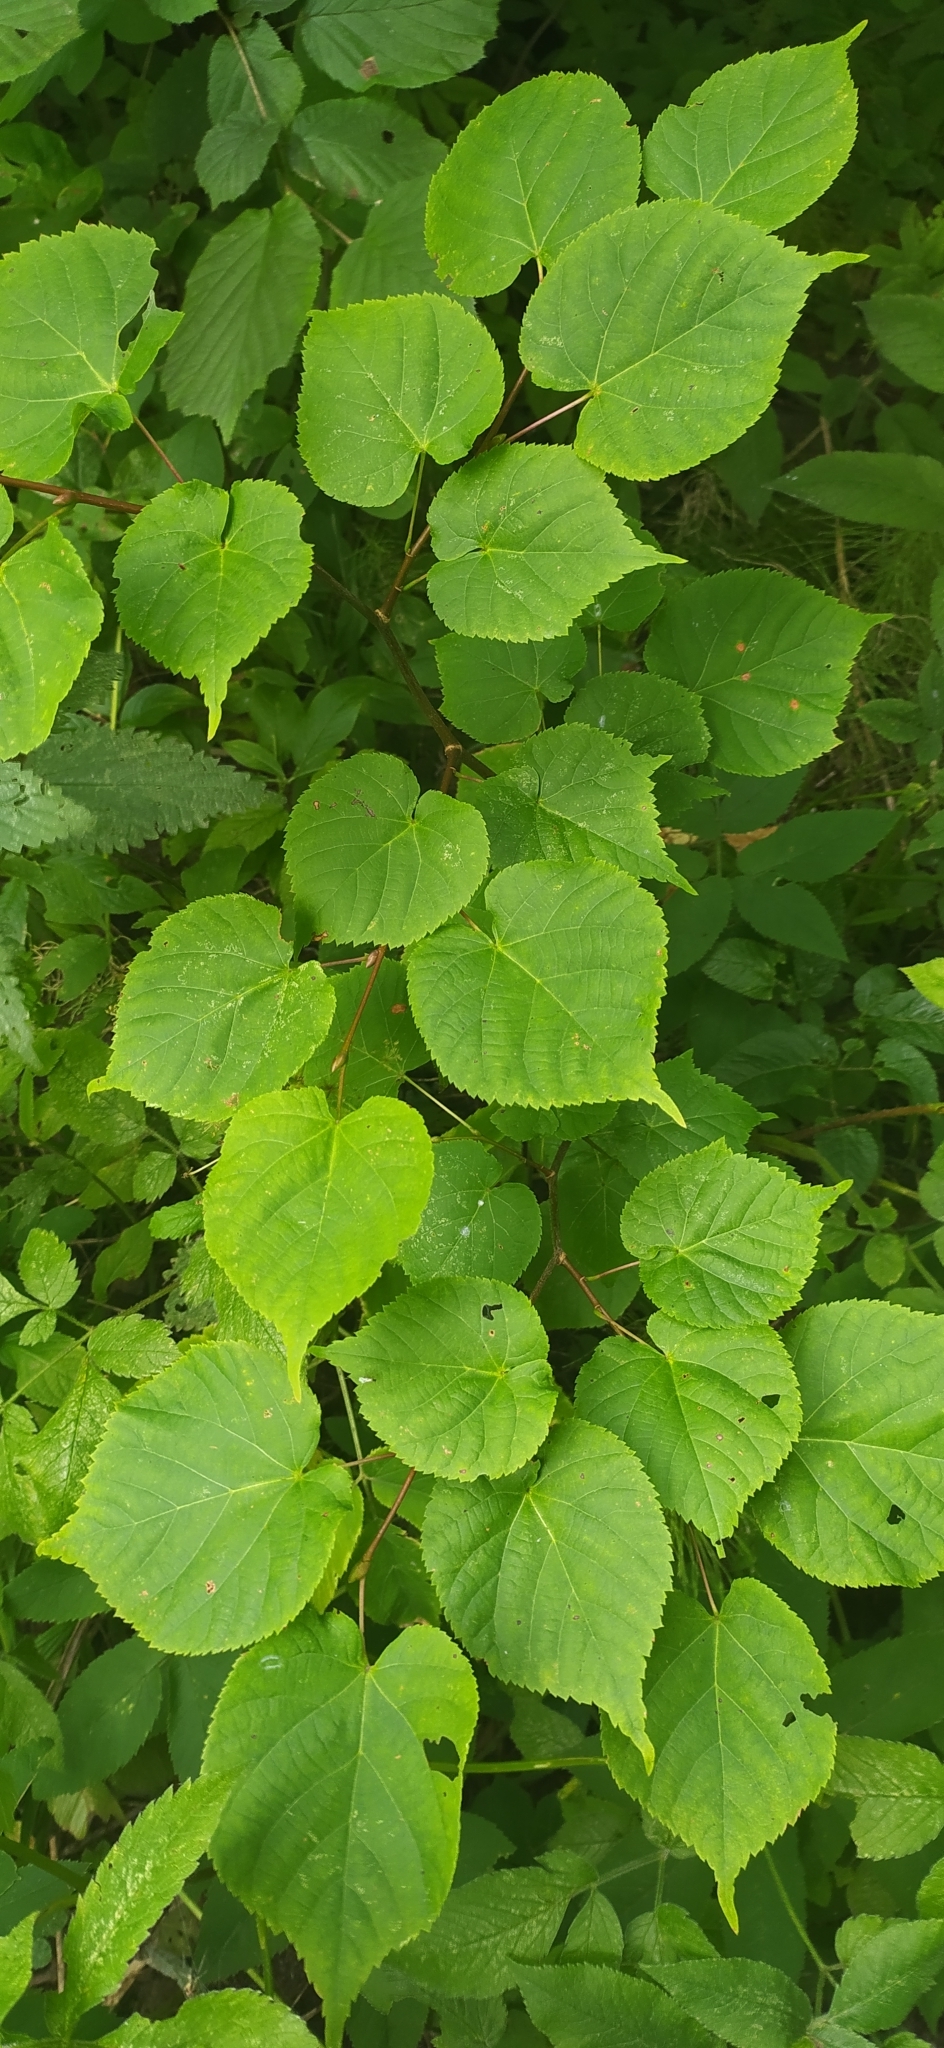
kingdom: Plantae
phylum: Tracheophyta
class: Magnoliopsida
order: Malvales
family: Malvaceae
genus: Tilia
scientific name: Tilia cordata
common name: Small-leaved lime
